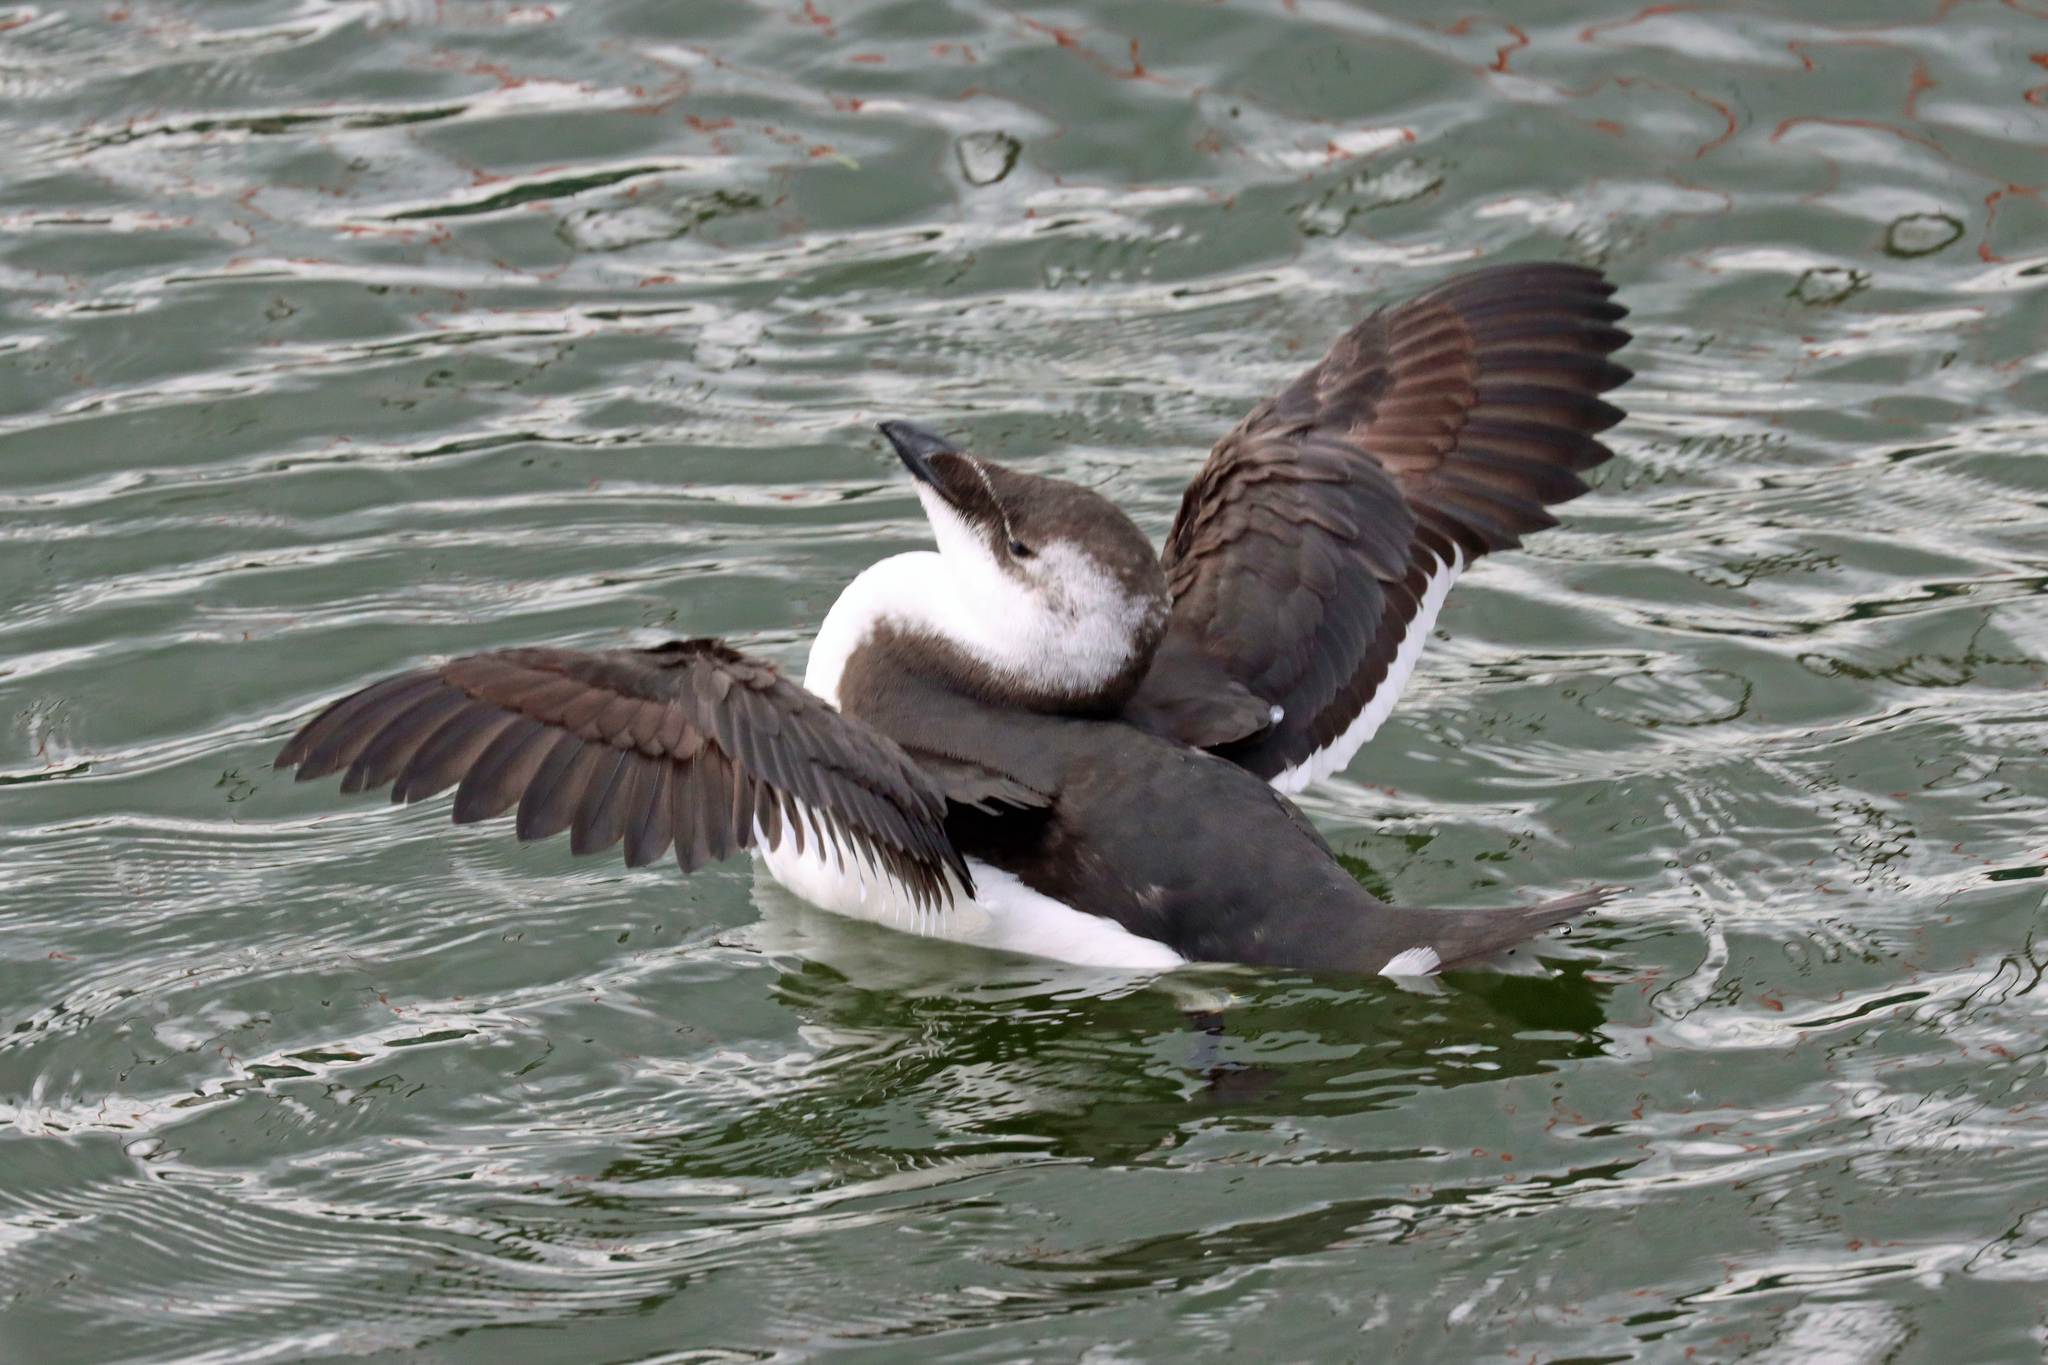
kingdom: Animalia
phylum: Chordata
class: Aves
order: Charadriiformes
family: Alcidae
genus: Uria
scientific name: Uria aalge
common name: Common murre
